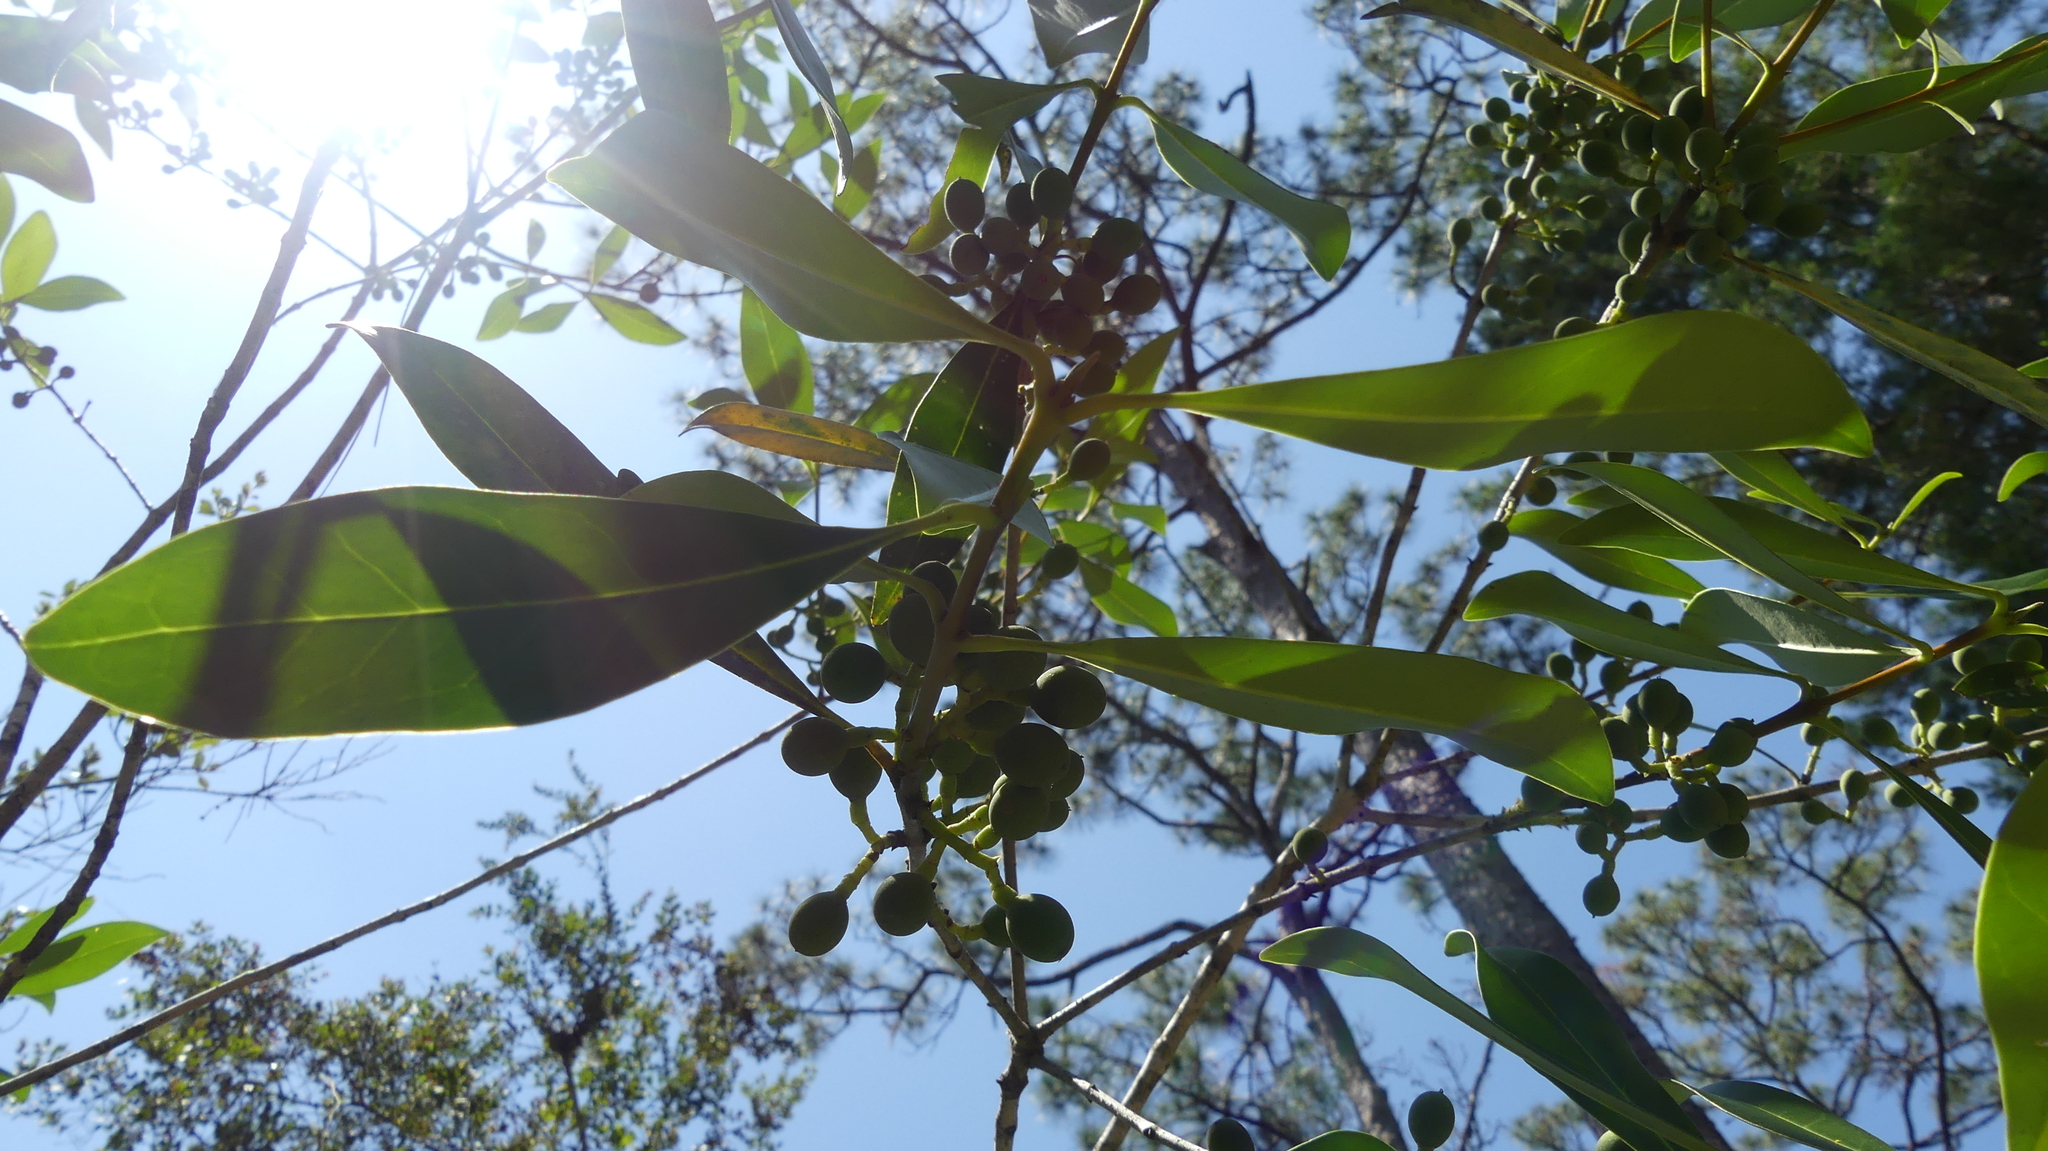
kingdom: Plantae
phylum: Tracheophyta
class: Magnoliopsida
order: Lamiales
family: Oleaceae
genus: Cartrema
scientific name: Cartrema floridana
